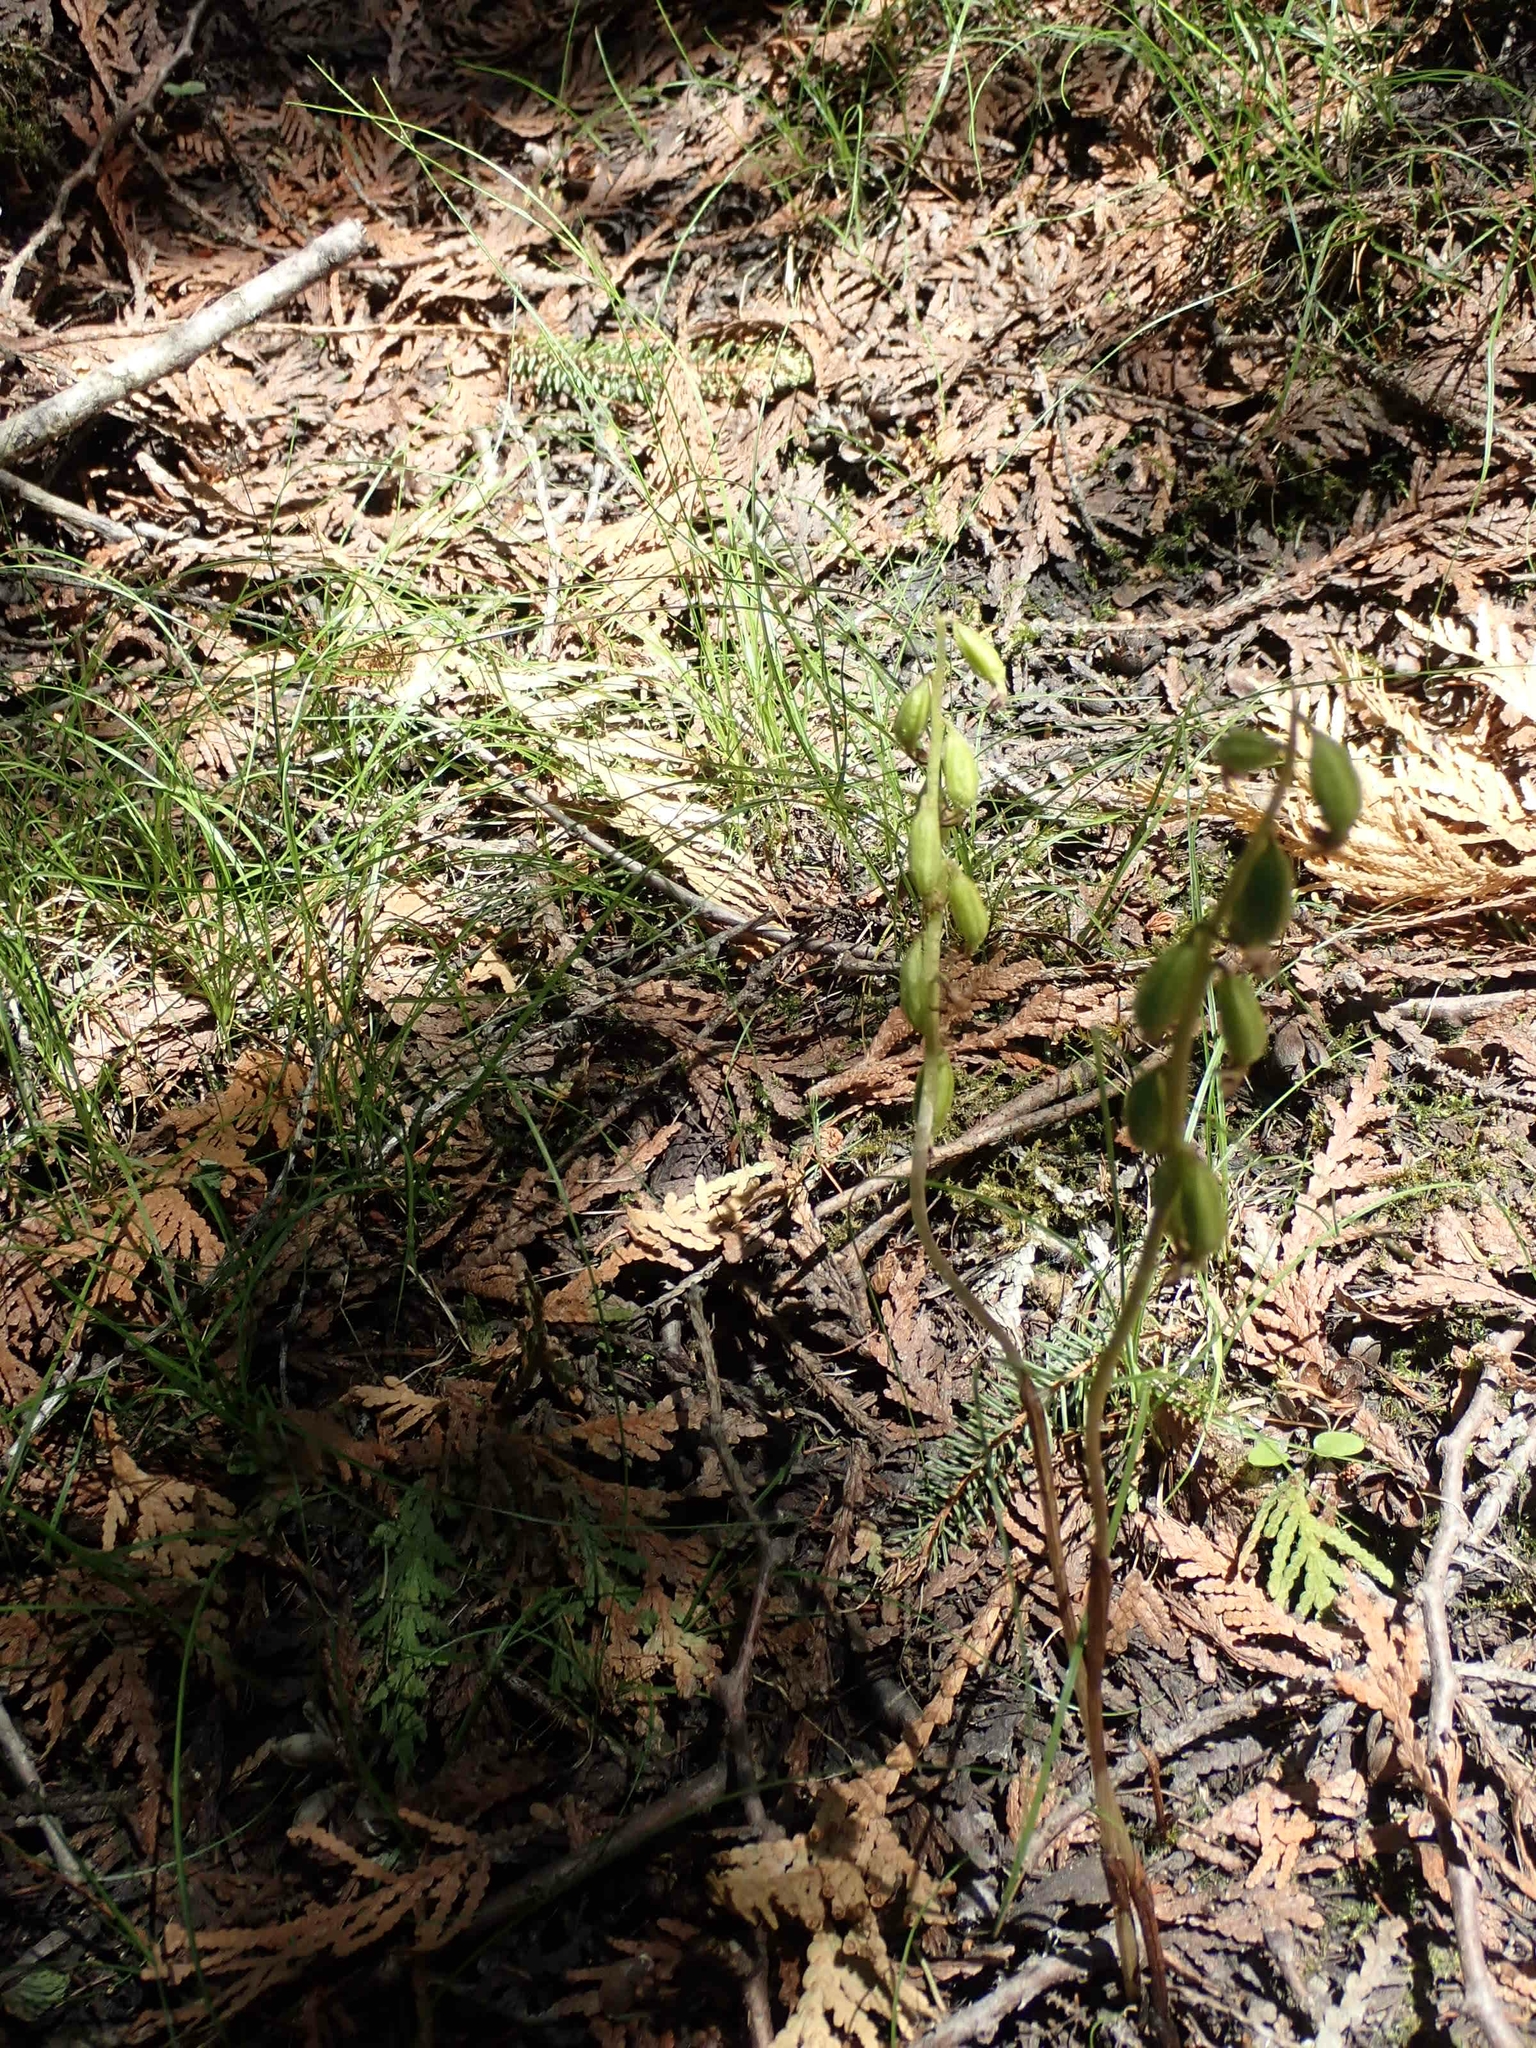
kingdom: Plantae
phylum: Tracheophyta
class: Liliopsida
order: Asparagales
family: Orchidaceae
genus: Corallorhiza
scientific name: Corallorhiza trifida
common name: Yellow coralroot
